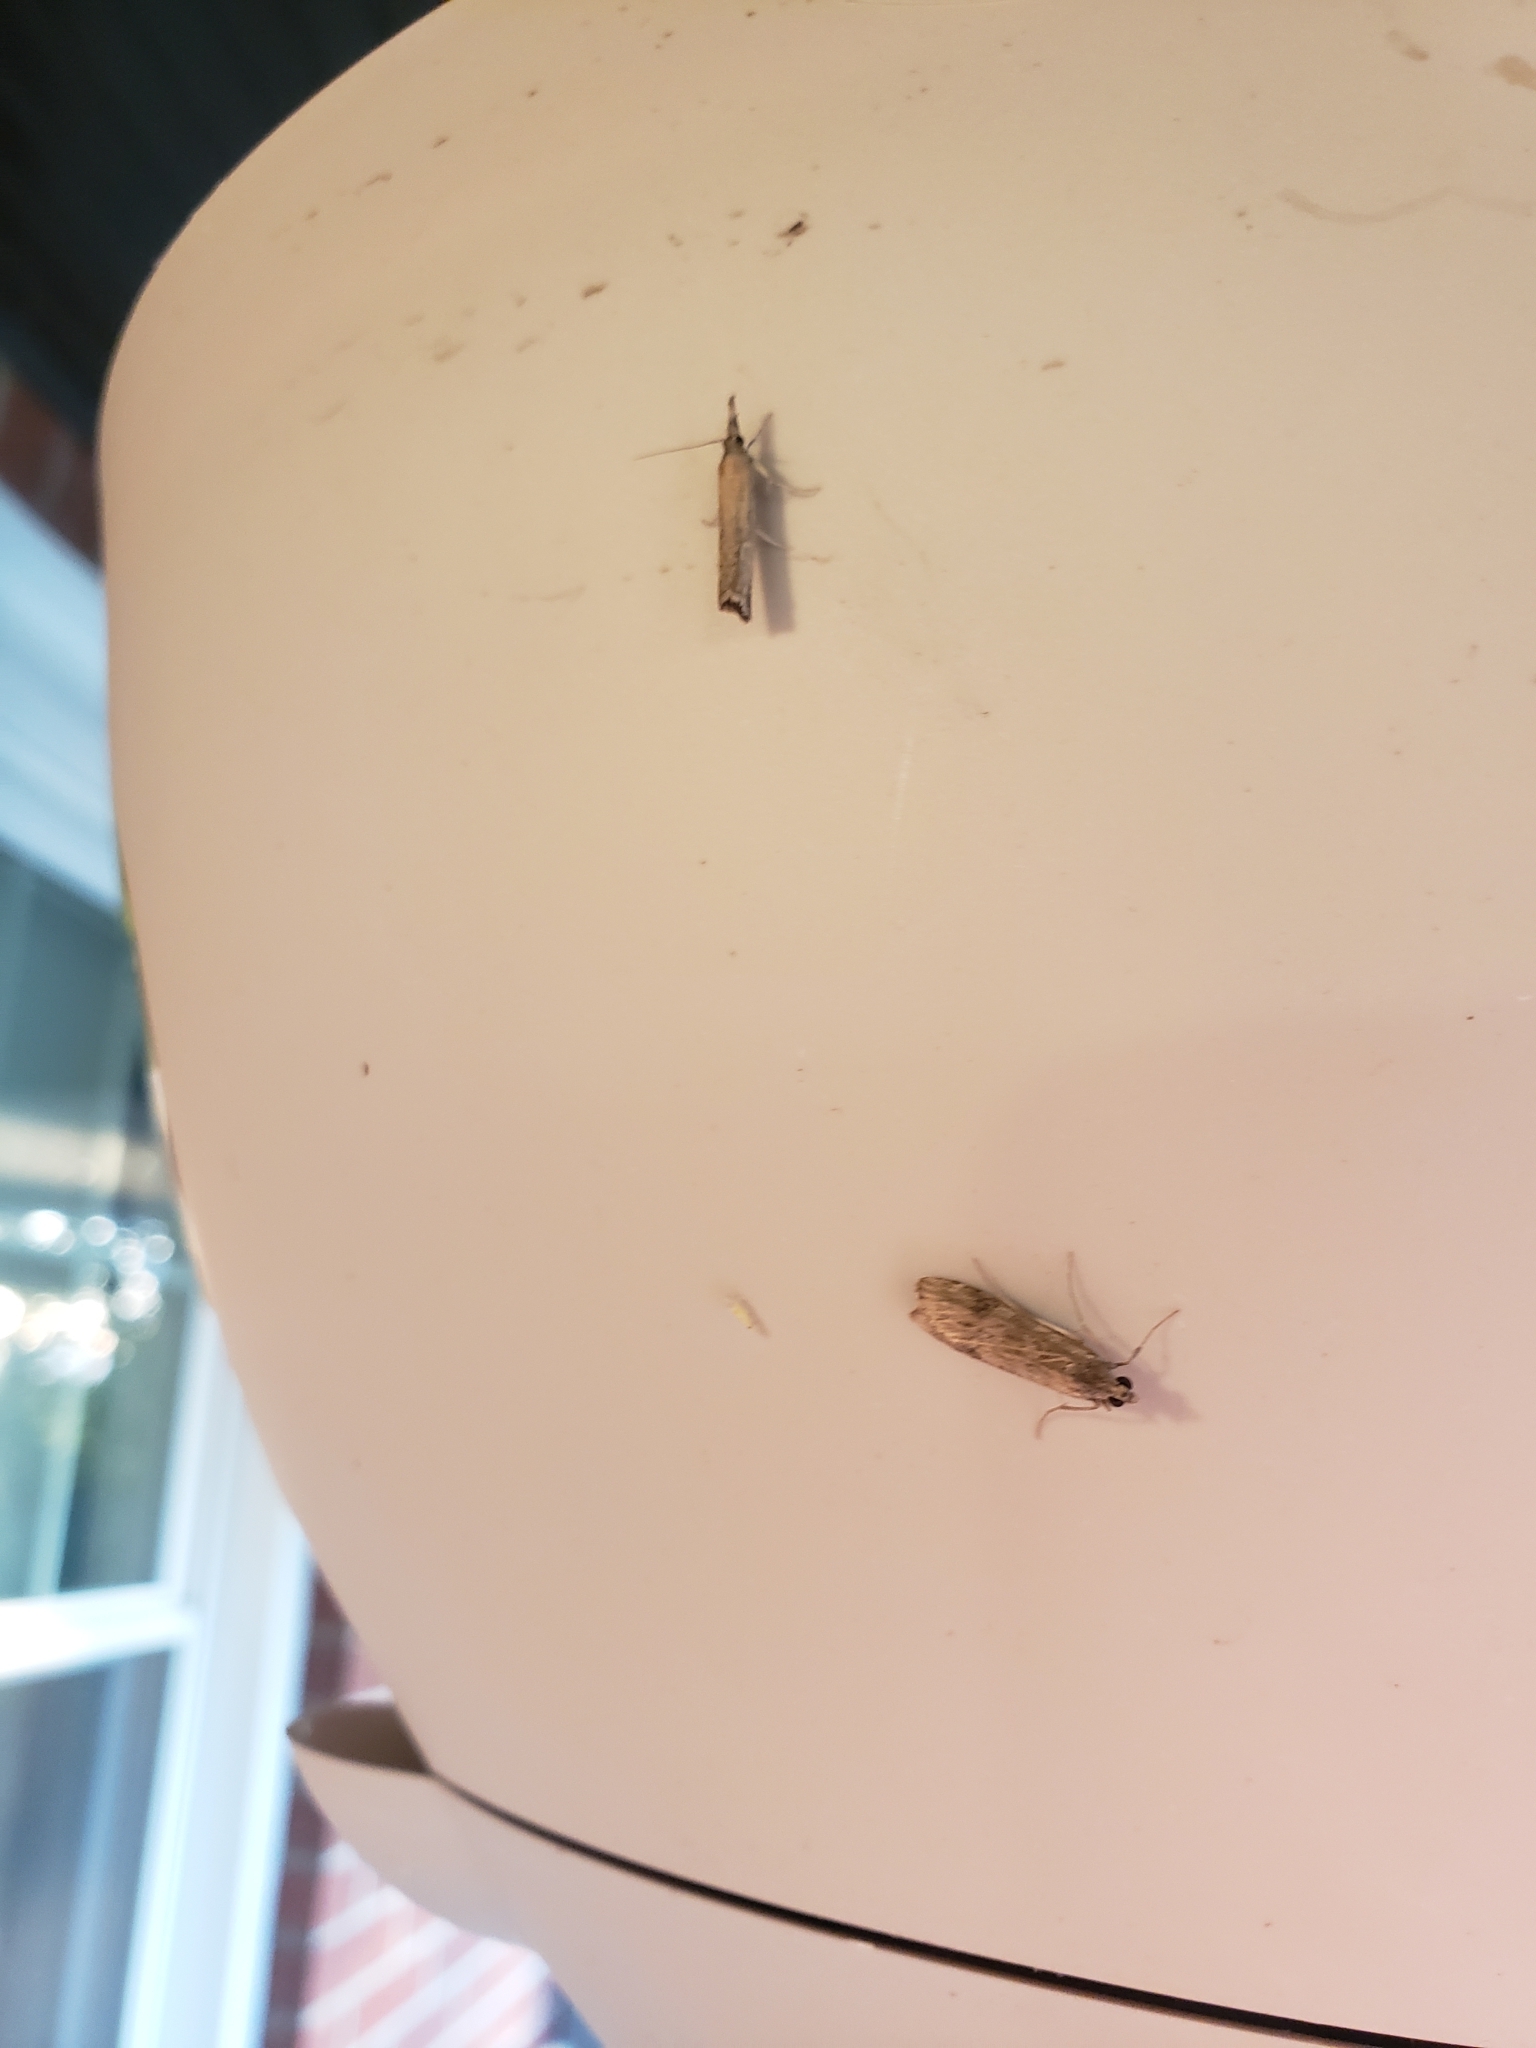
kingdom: Animalia
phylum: Arthropoda
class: Insecta
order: Lepidoptera
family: Crambidae
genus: Nomophila
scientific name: Nomophila nearctica
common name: American rush veneer
